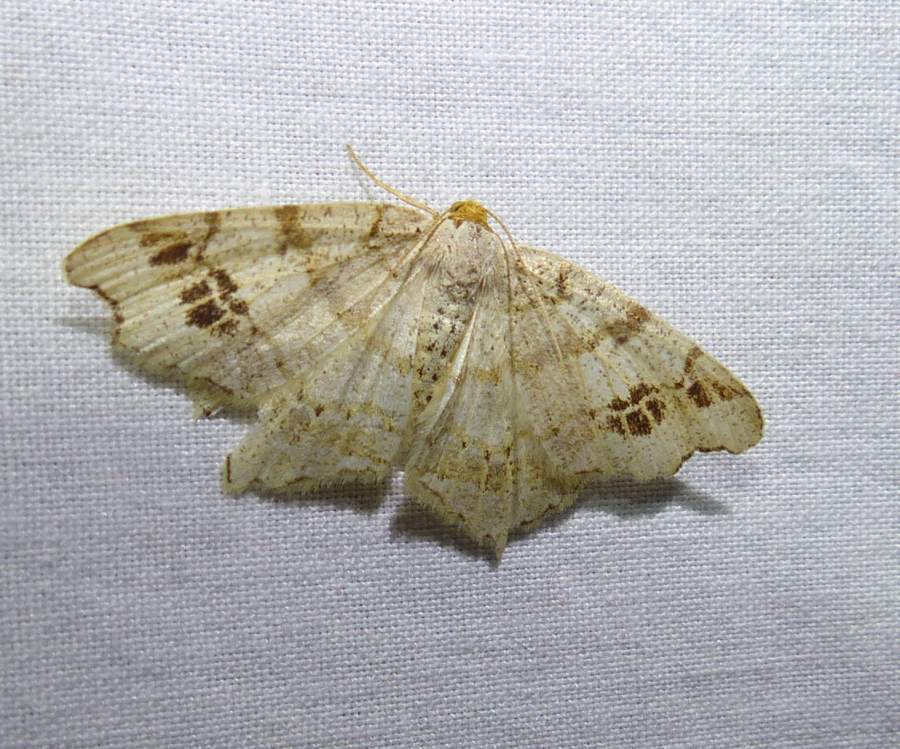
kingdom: Animalia
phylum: Arthropoda
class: Insecta
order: Lepidoptera
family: Geometridae
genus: Macaria
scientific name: Macaria aemulataria
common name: Common angle
